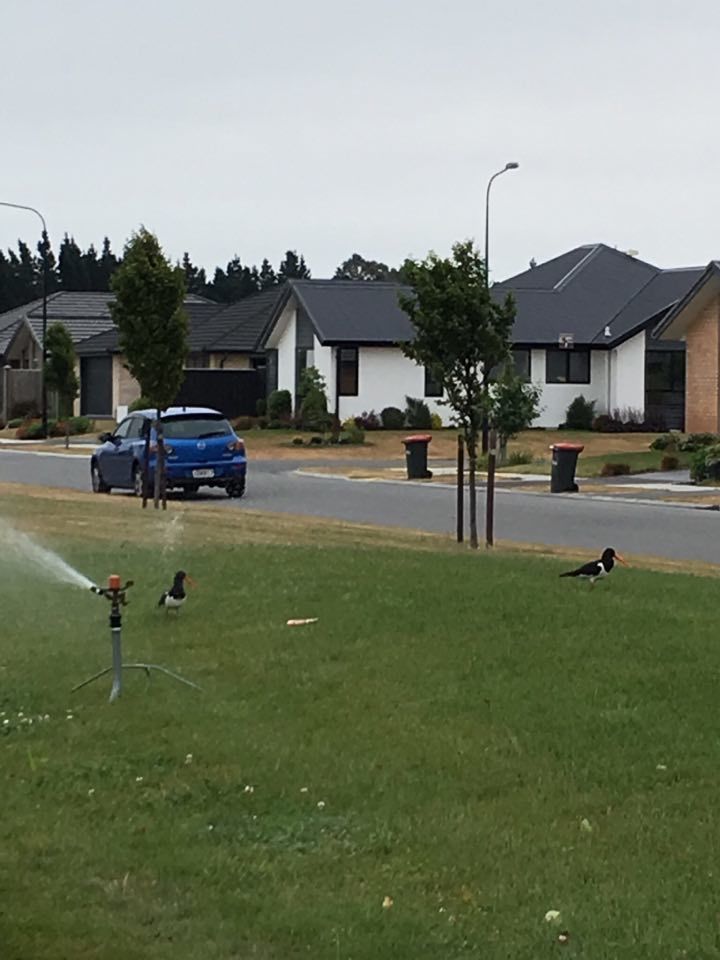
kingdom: Animalia
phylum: Chordata
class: Aves
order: Charadriiformes
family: Haematopodidae
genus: Haematopus
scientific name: Haematopus finschi
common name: South island oystercatcher
